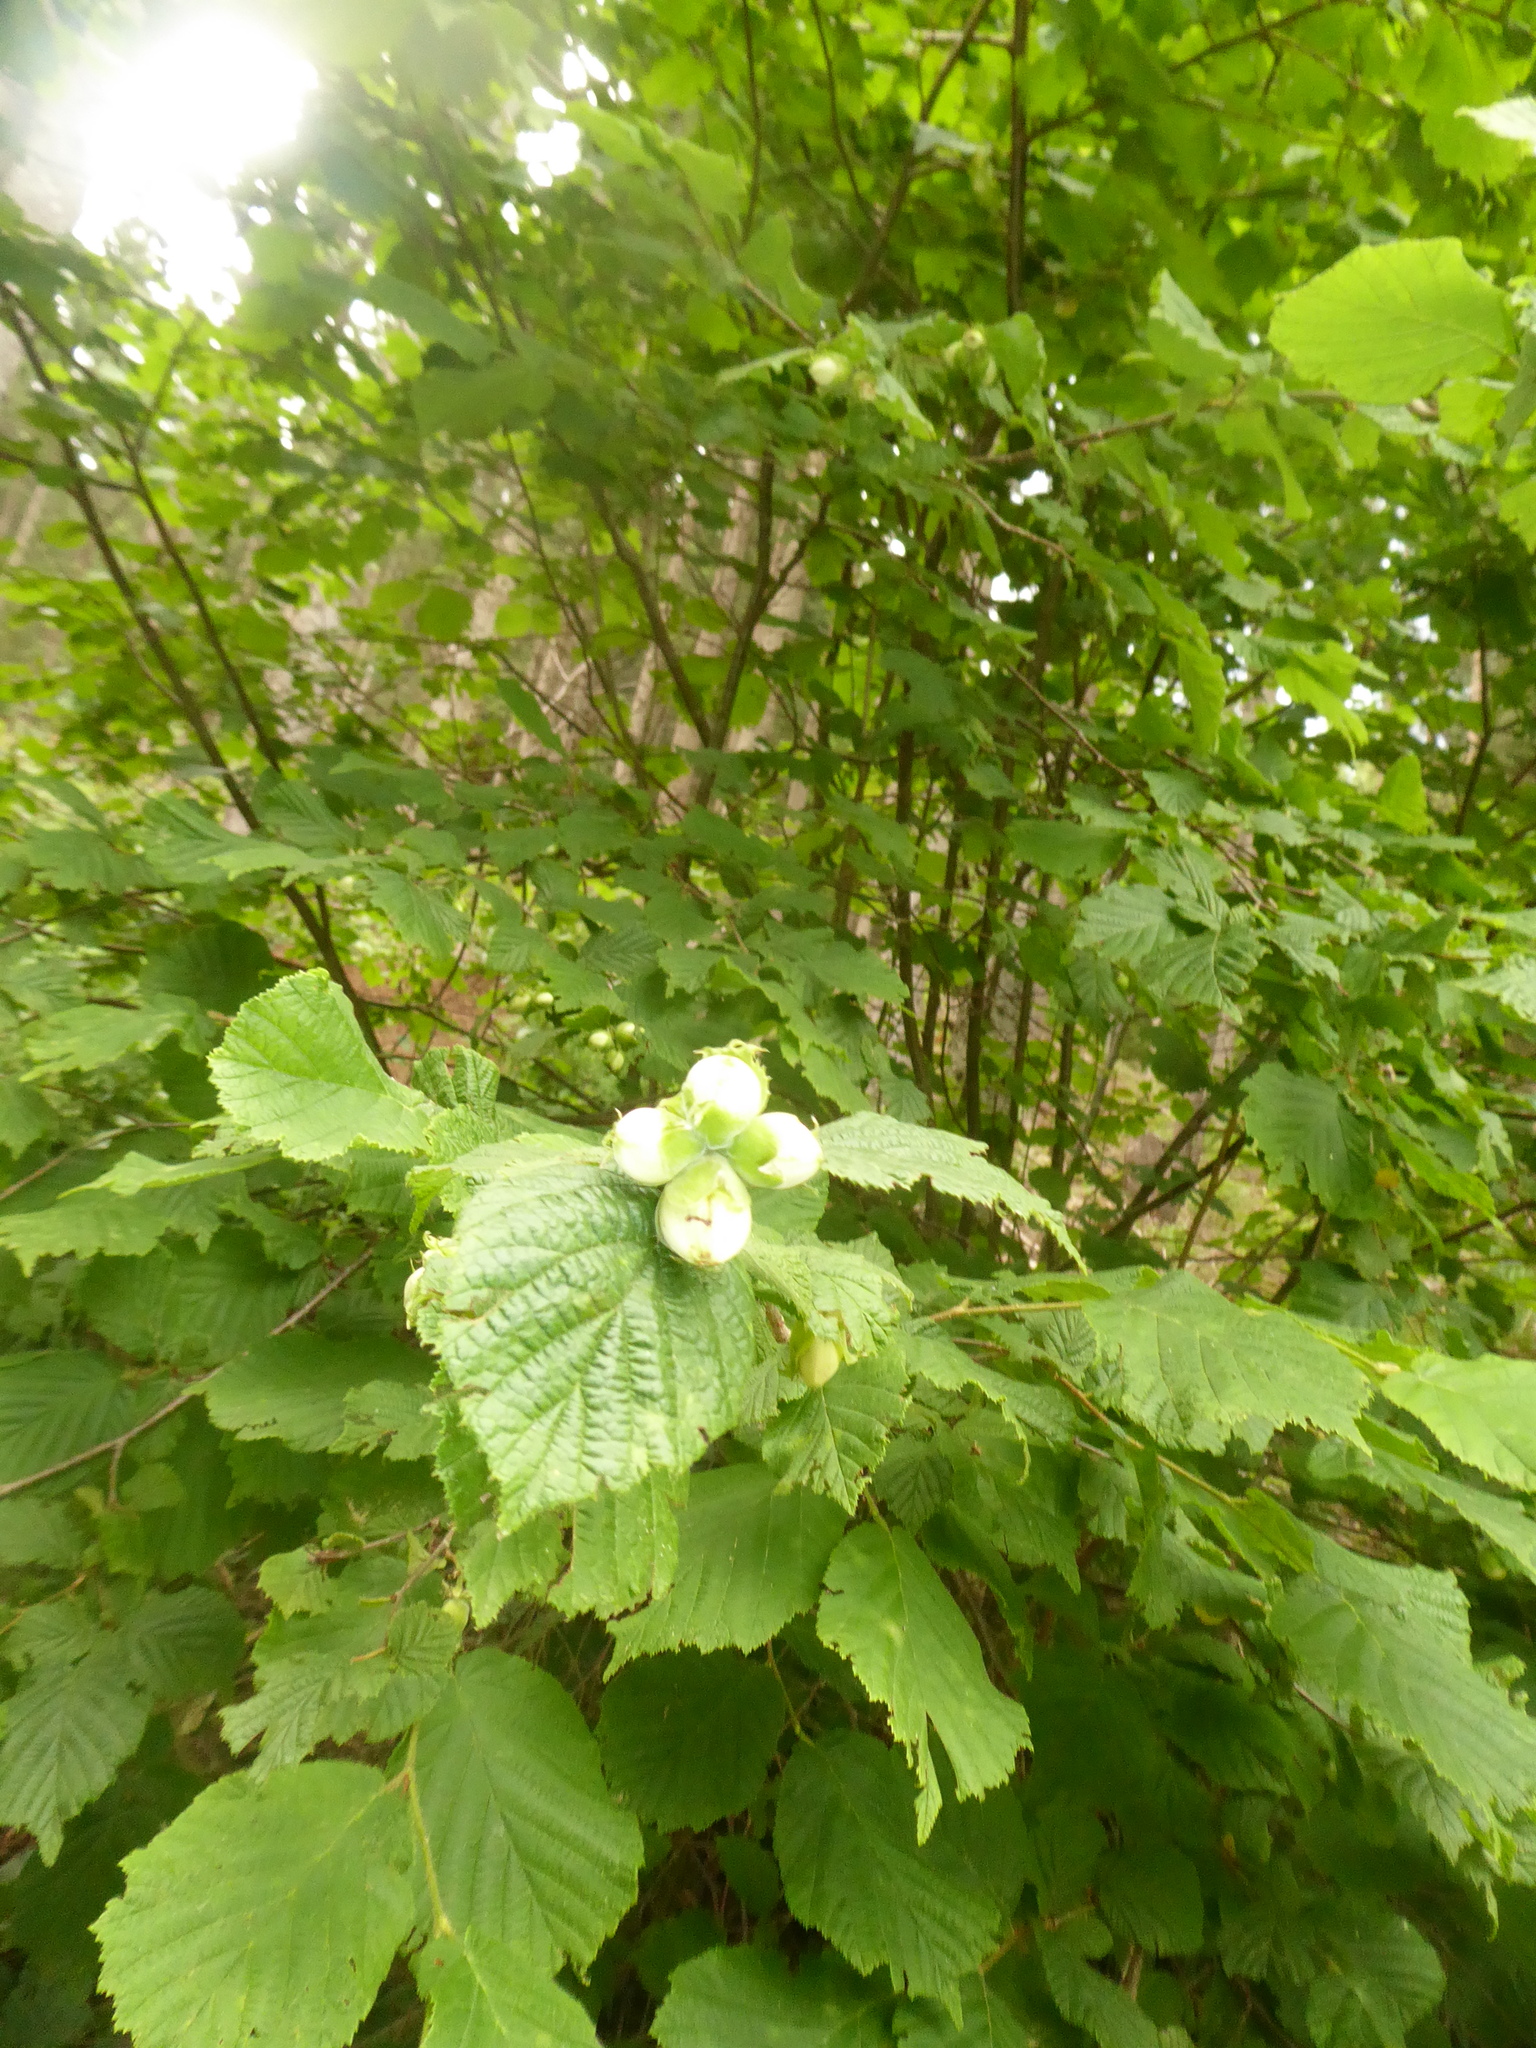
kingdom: Plantae
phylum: Tracheophyta
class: Magnoliopsida
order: Fagales
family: Betulaceae
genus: Corylus
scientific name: Corylus avellana
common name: European hazel
